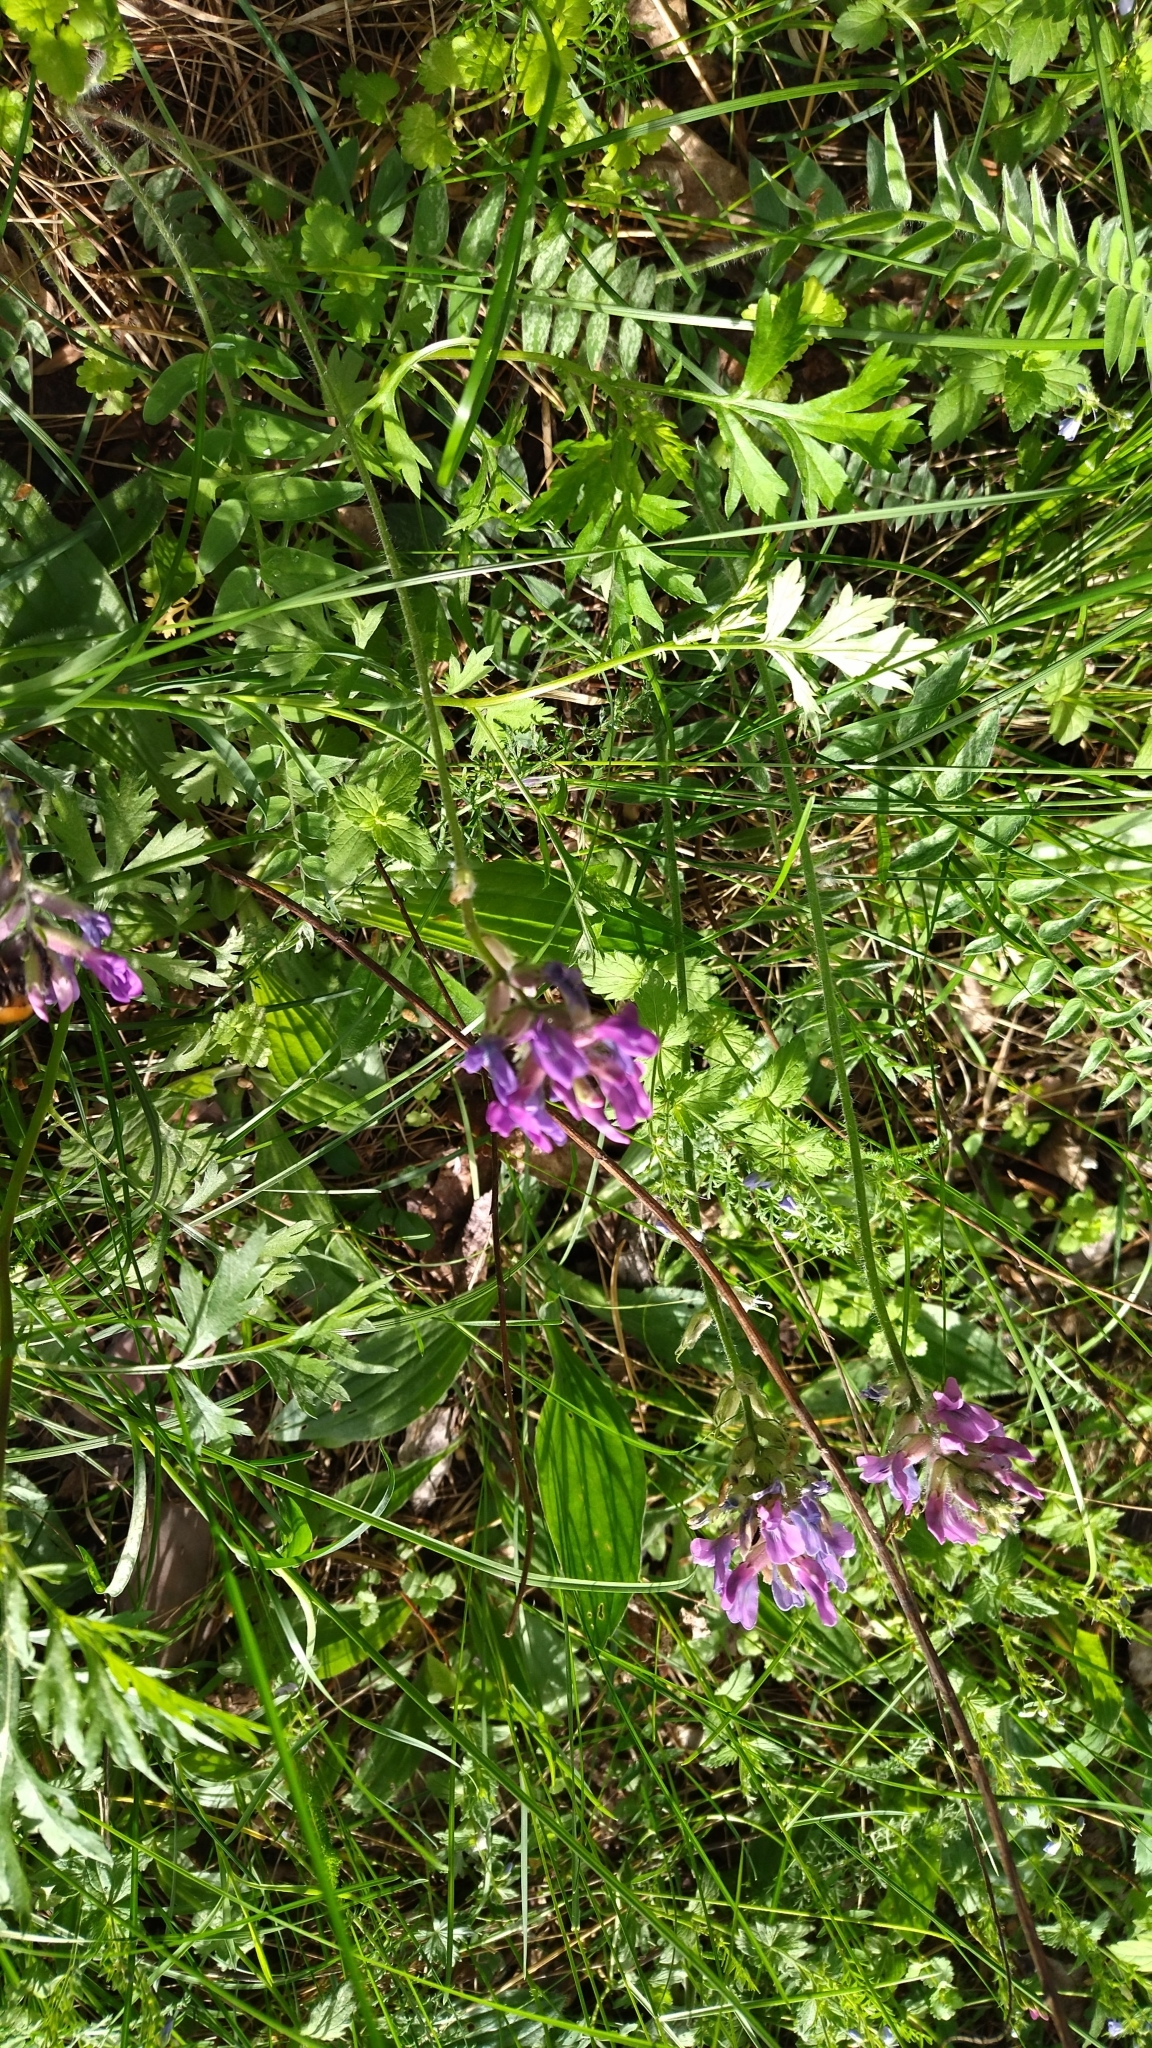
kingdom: Plantae
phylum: Tracheophyta
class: Magnoliopsida
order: Fabales
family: Fabaceae
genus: Oxytropis
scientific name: Oxytropis campanulata
